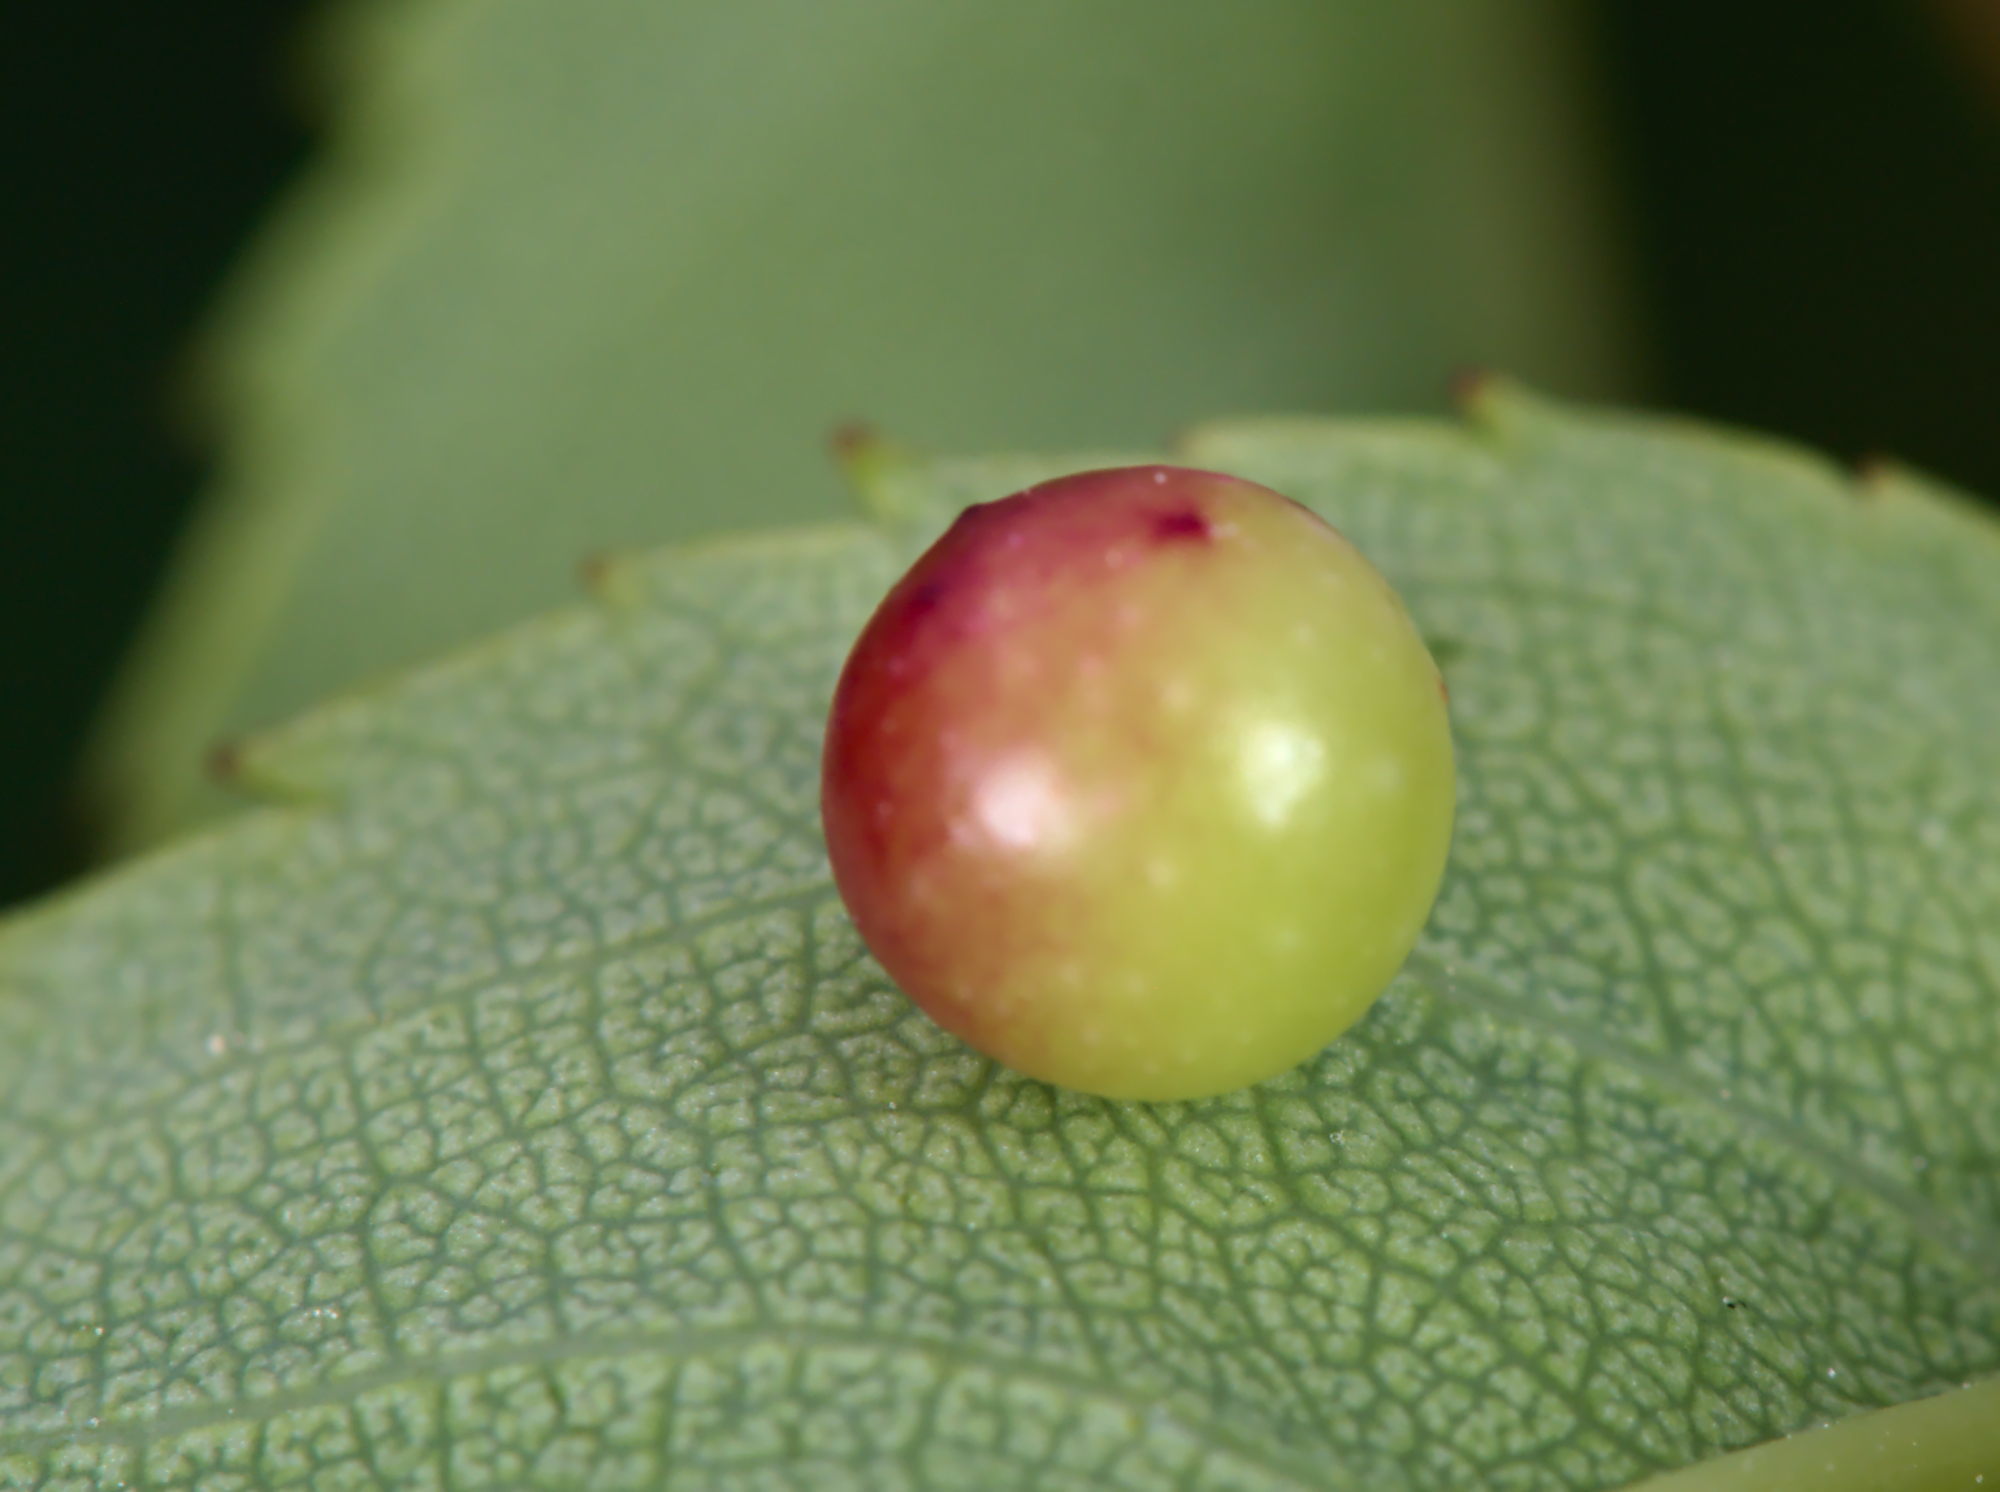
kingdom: Animalia
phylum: Arthropoda
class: Insecta
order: Hymenoptera
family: Cynipidae
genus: Diplolepis
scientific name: Diplolepis
